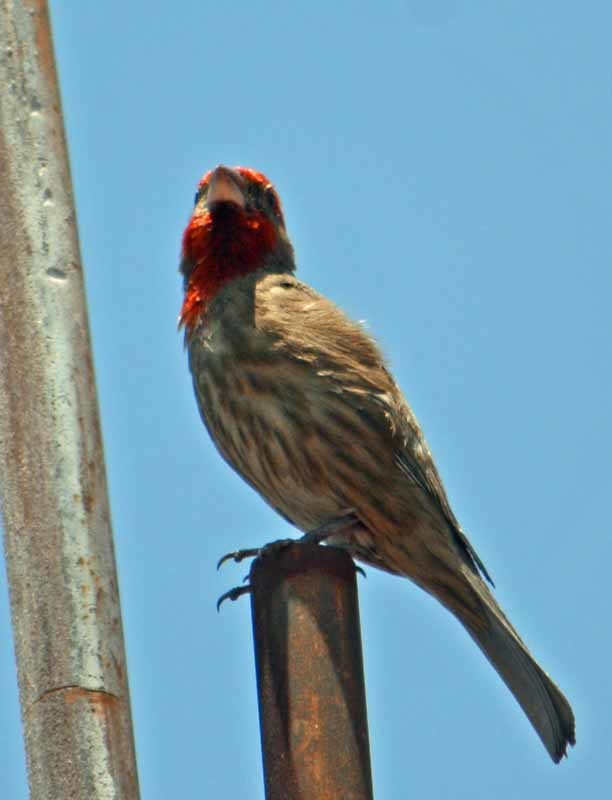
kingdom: Animalia
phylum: Chordata
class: Aves
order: Passeriformes
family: Fringillidae
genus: Haemorhous
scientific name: Haemorhous mexicanus
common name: House finch
